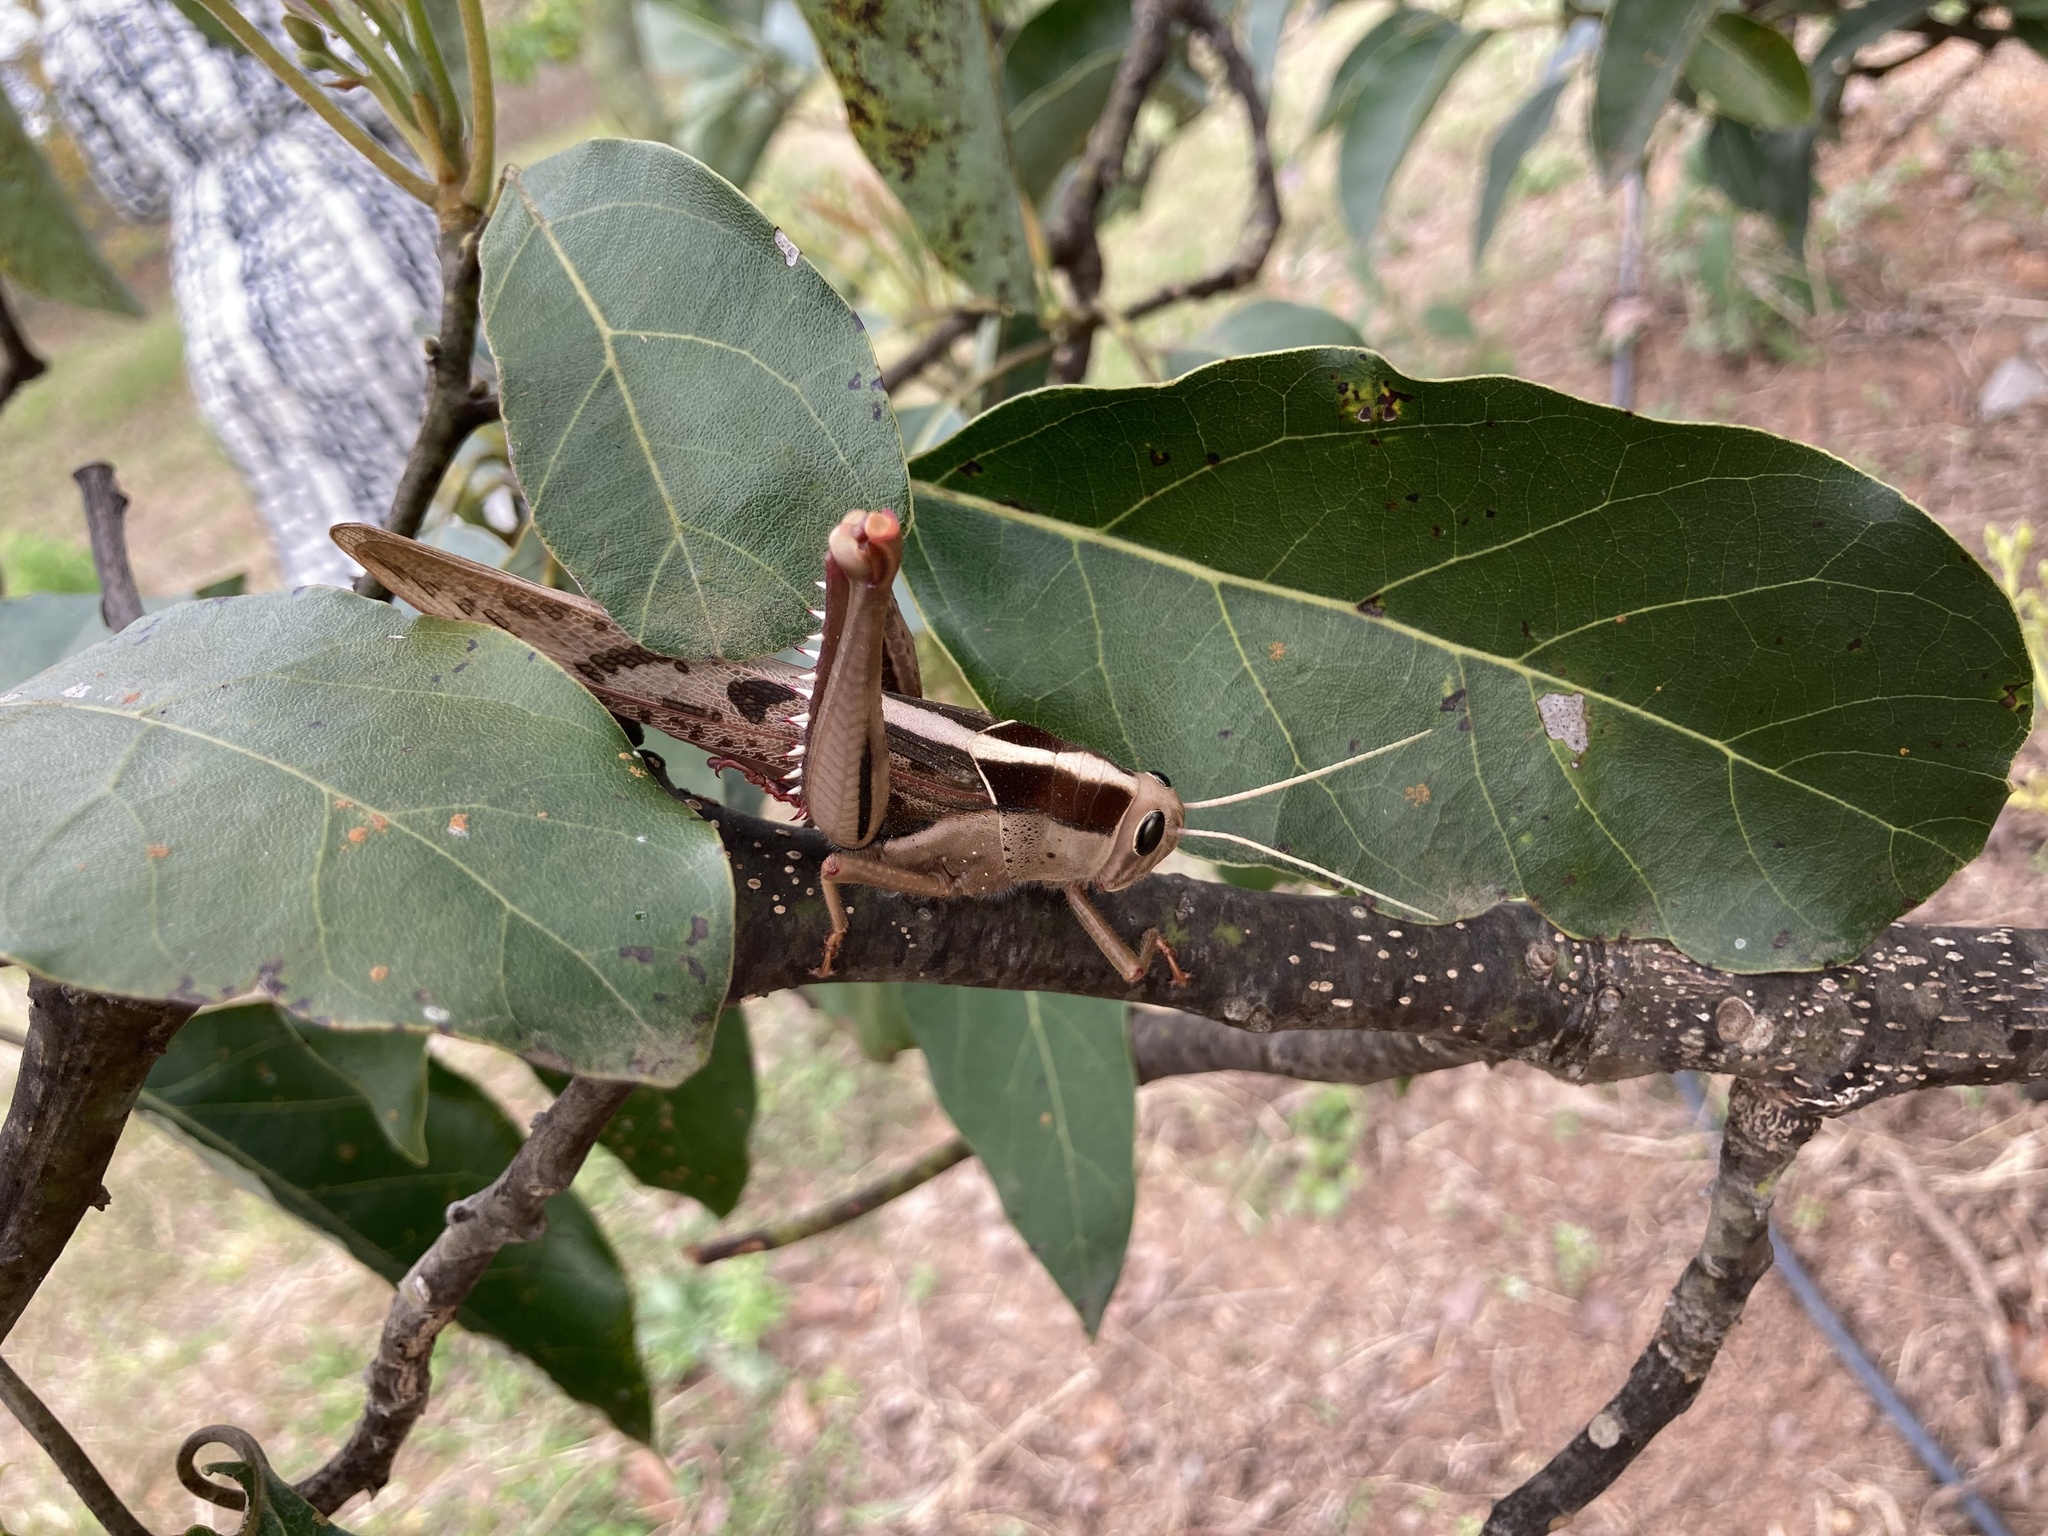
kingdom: Animalia
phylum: Arthropoda
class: Insecta
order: Orthoptera
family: Acrididae
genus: Acanthacris
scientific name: Acanthacris ruficornis
